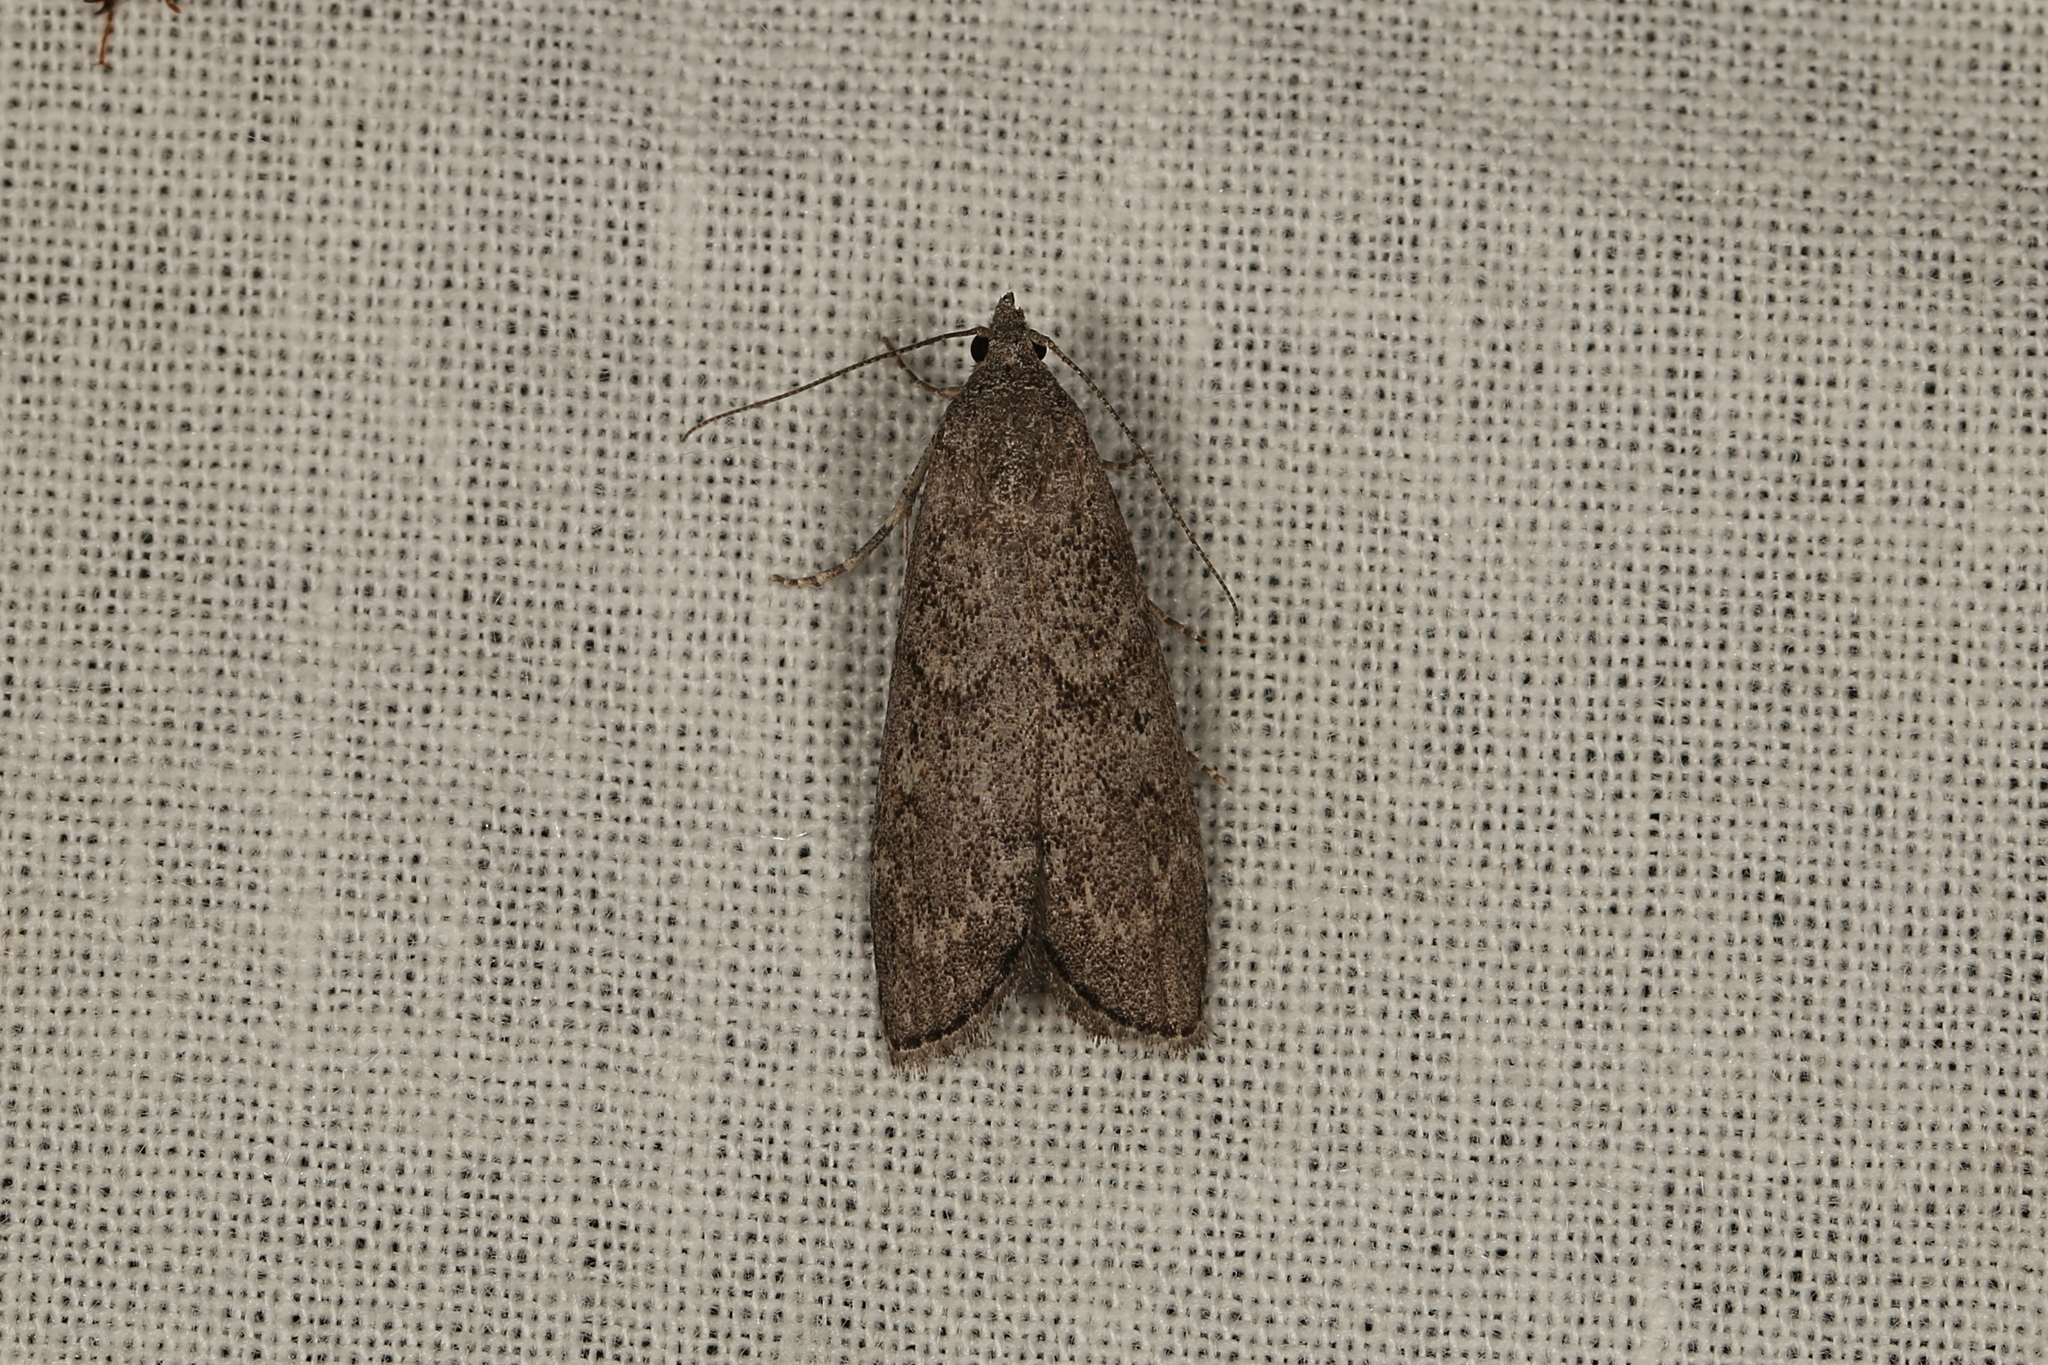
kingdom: Animalia
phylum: Arthropoda
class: Insecta
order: Lepidoptera
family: Pyralidae
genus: Heteromicta
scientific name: Heteromicta pachytera
